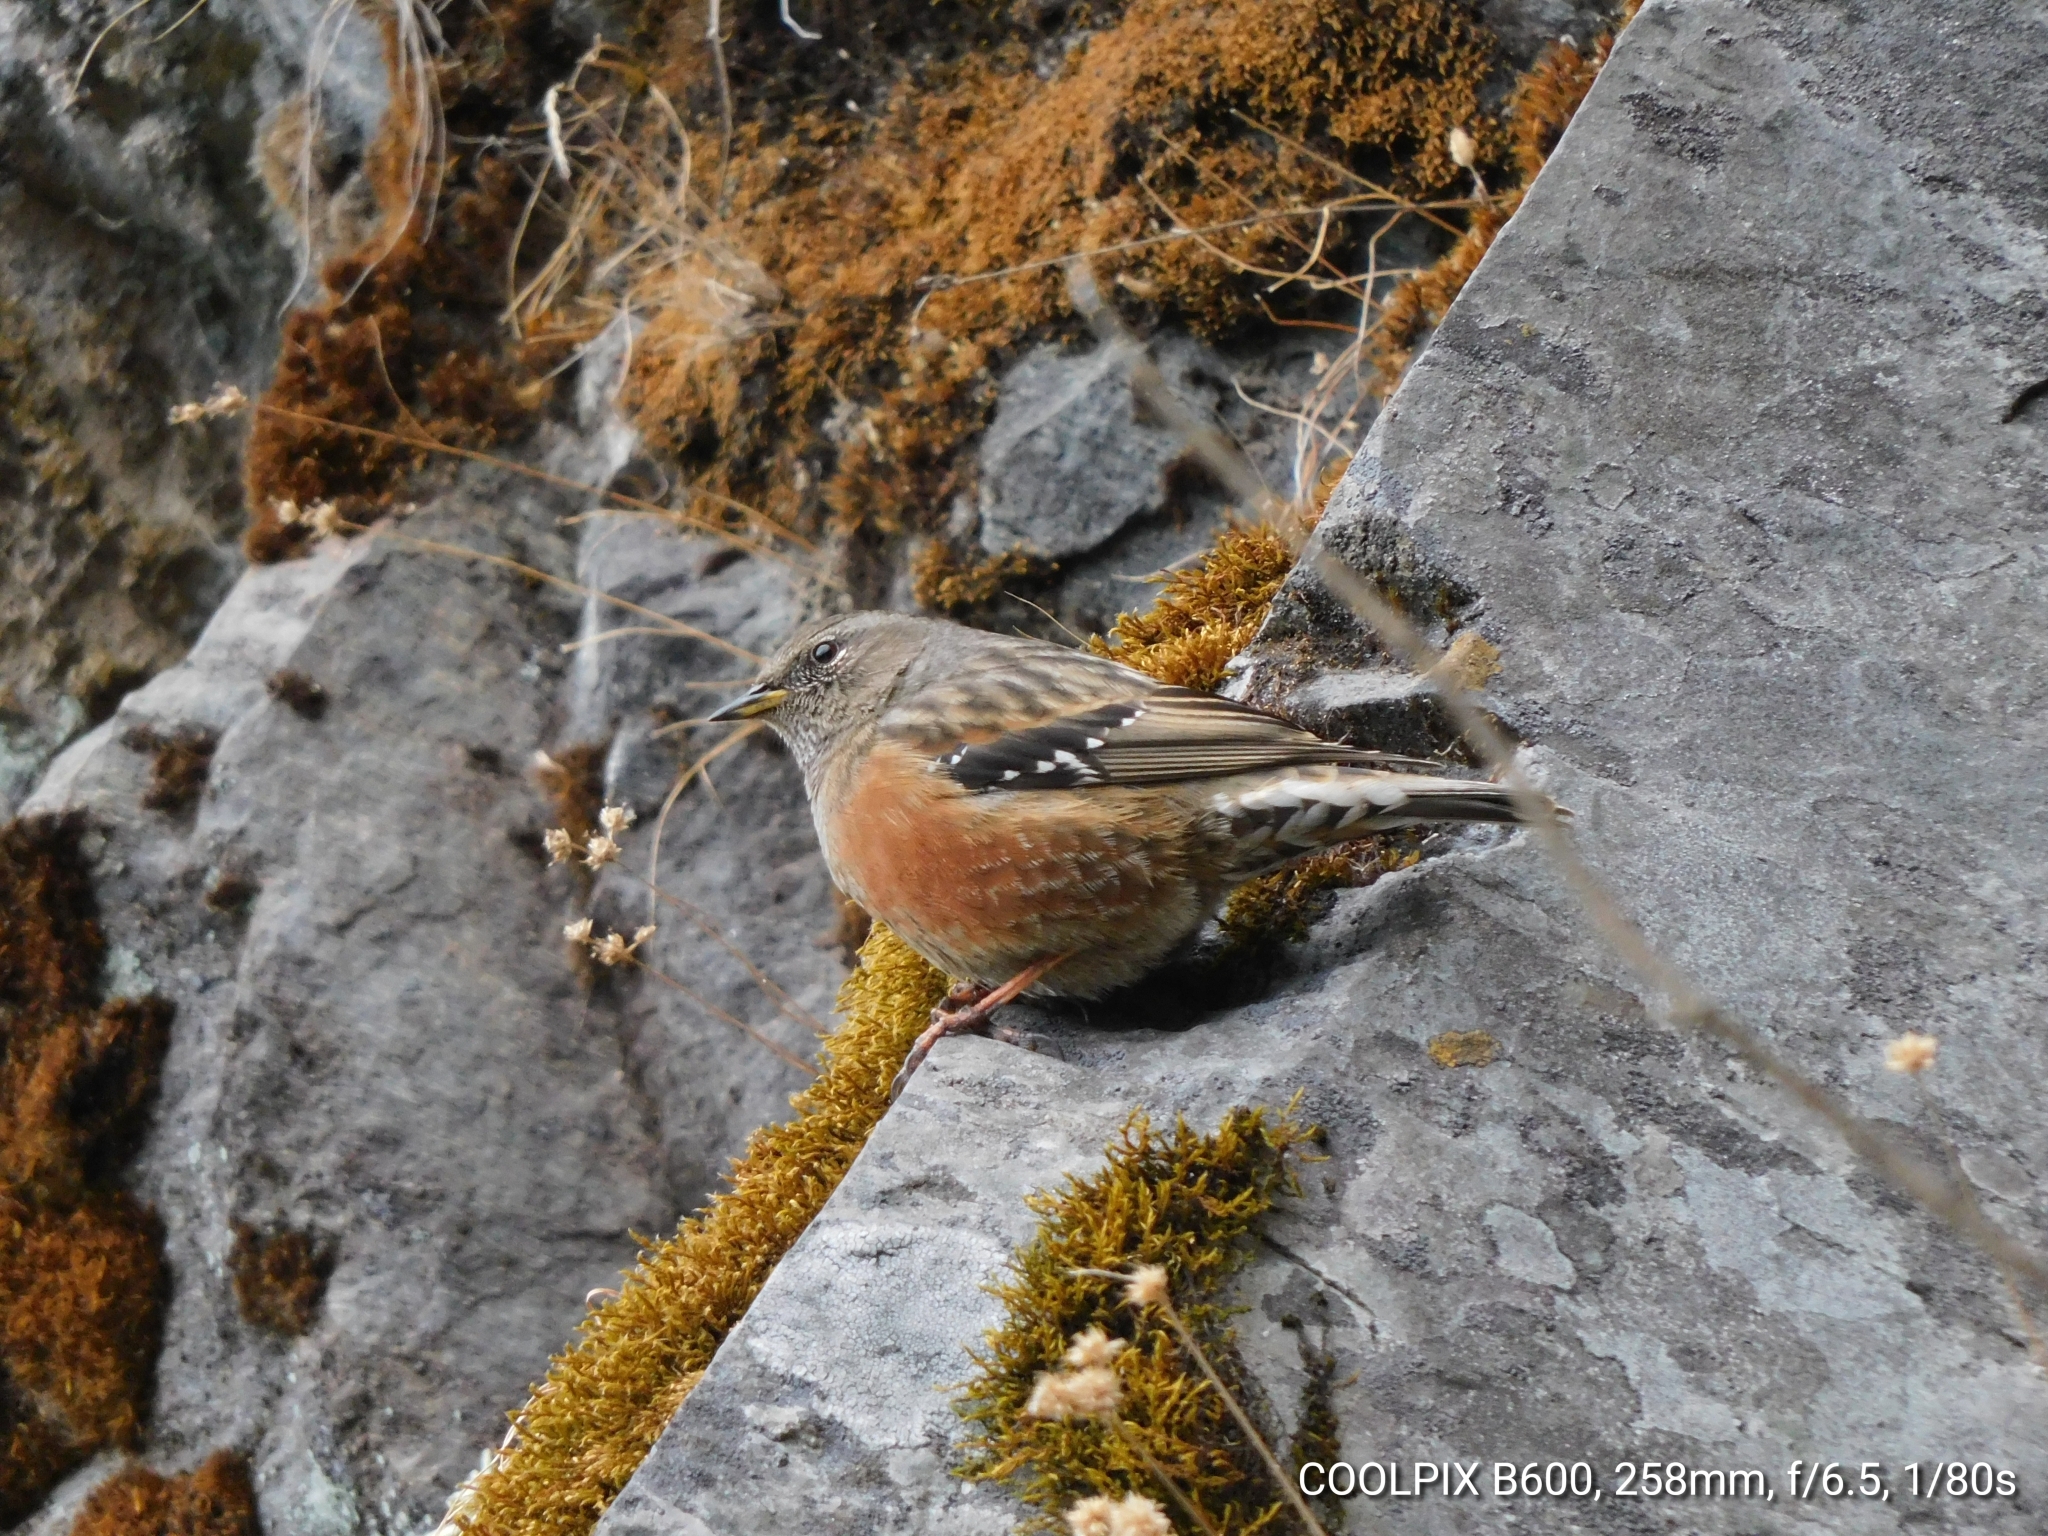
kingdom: Animalia
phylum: Chordata
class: Aves
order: Passeriformes
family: Prunellidae
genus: Prunella
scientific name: Prunella collaris
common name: Alpine accentor
